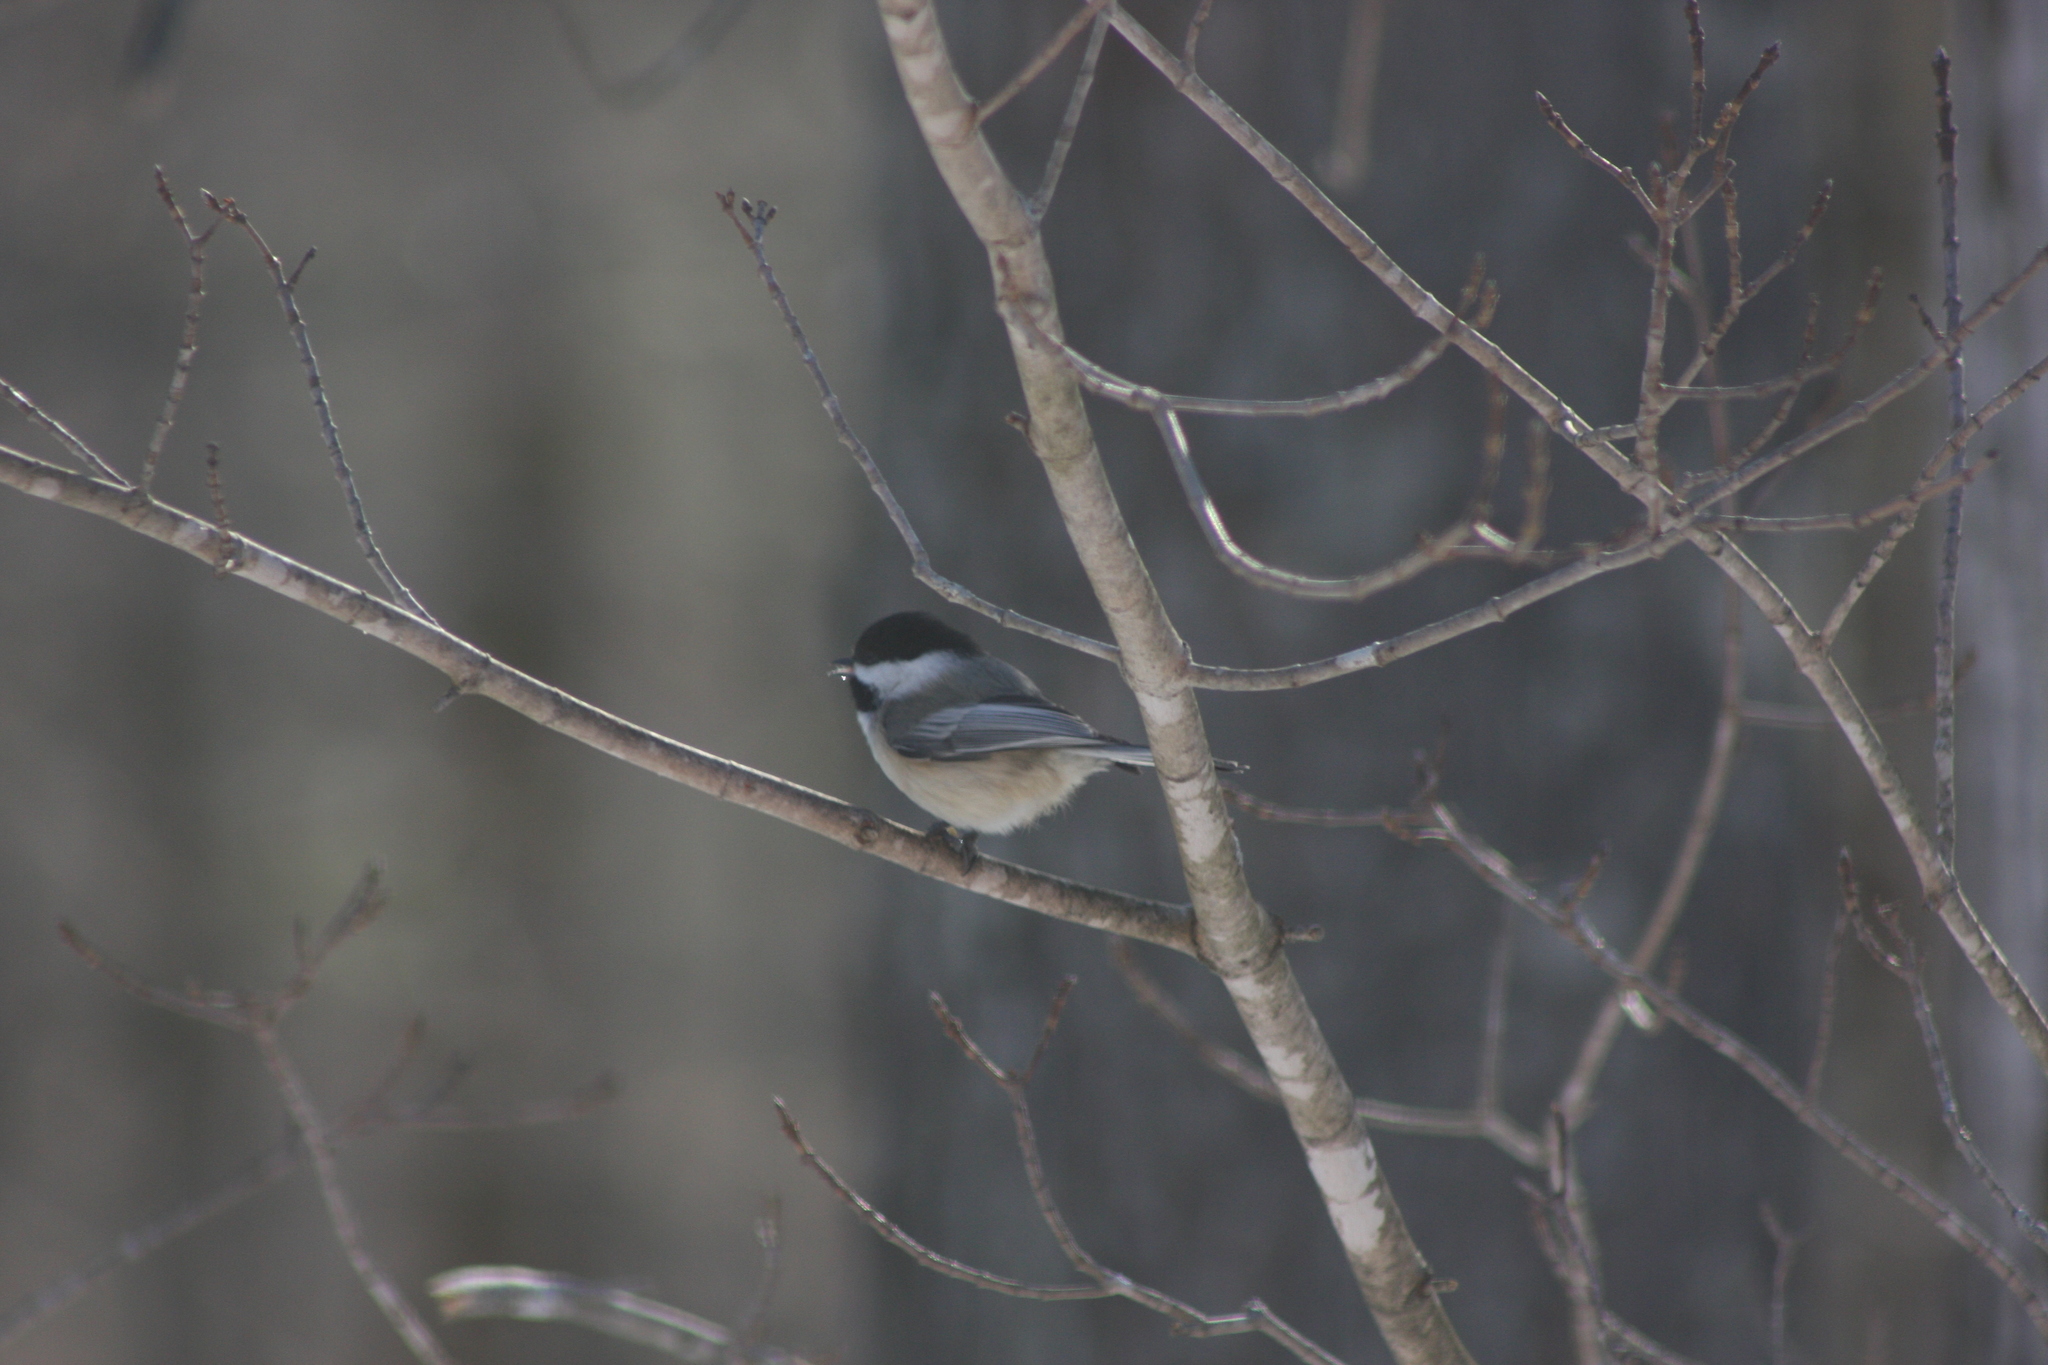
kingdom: Animalia
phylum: Chordata
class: Aves
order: Passeriformes
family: Paridae
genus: Poecile
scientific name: Poecile atricapillus
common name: Black-capped chickadee
